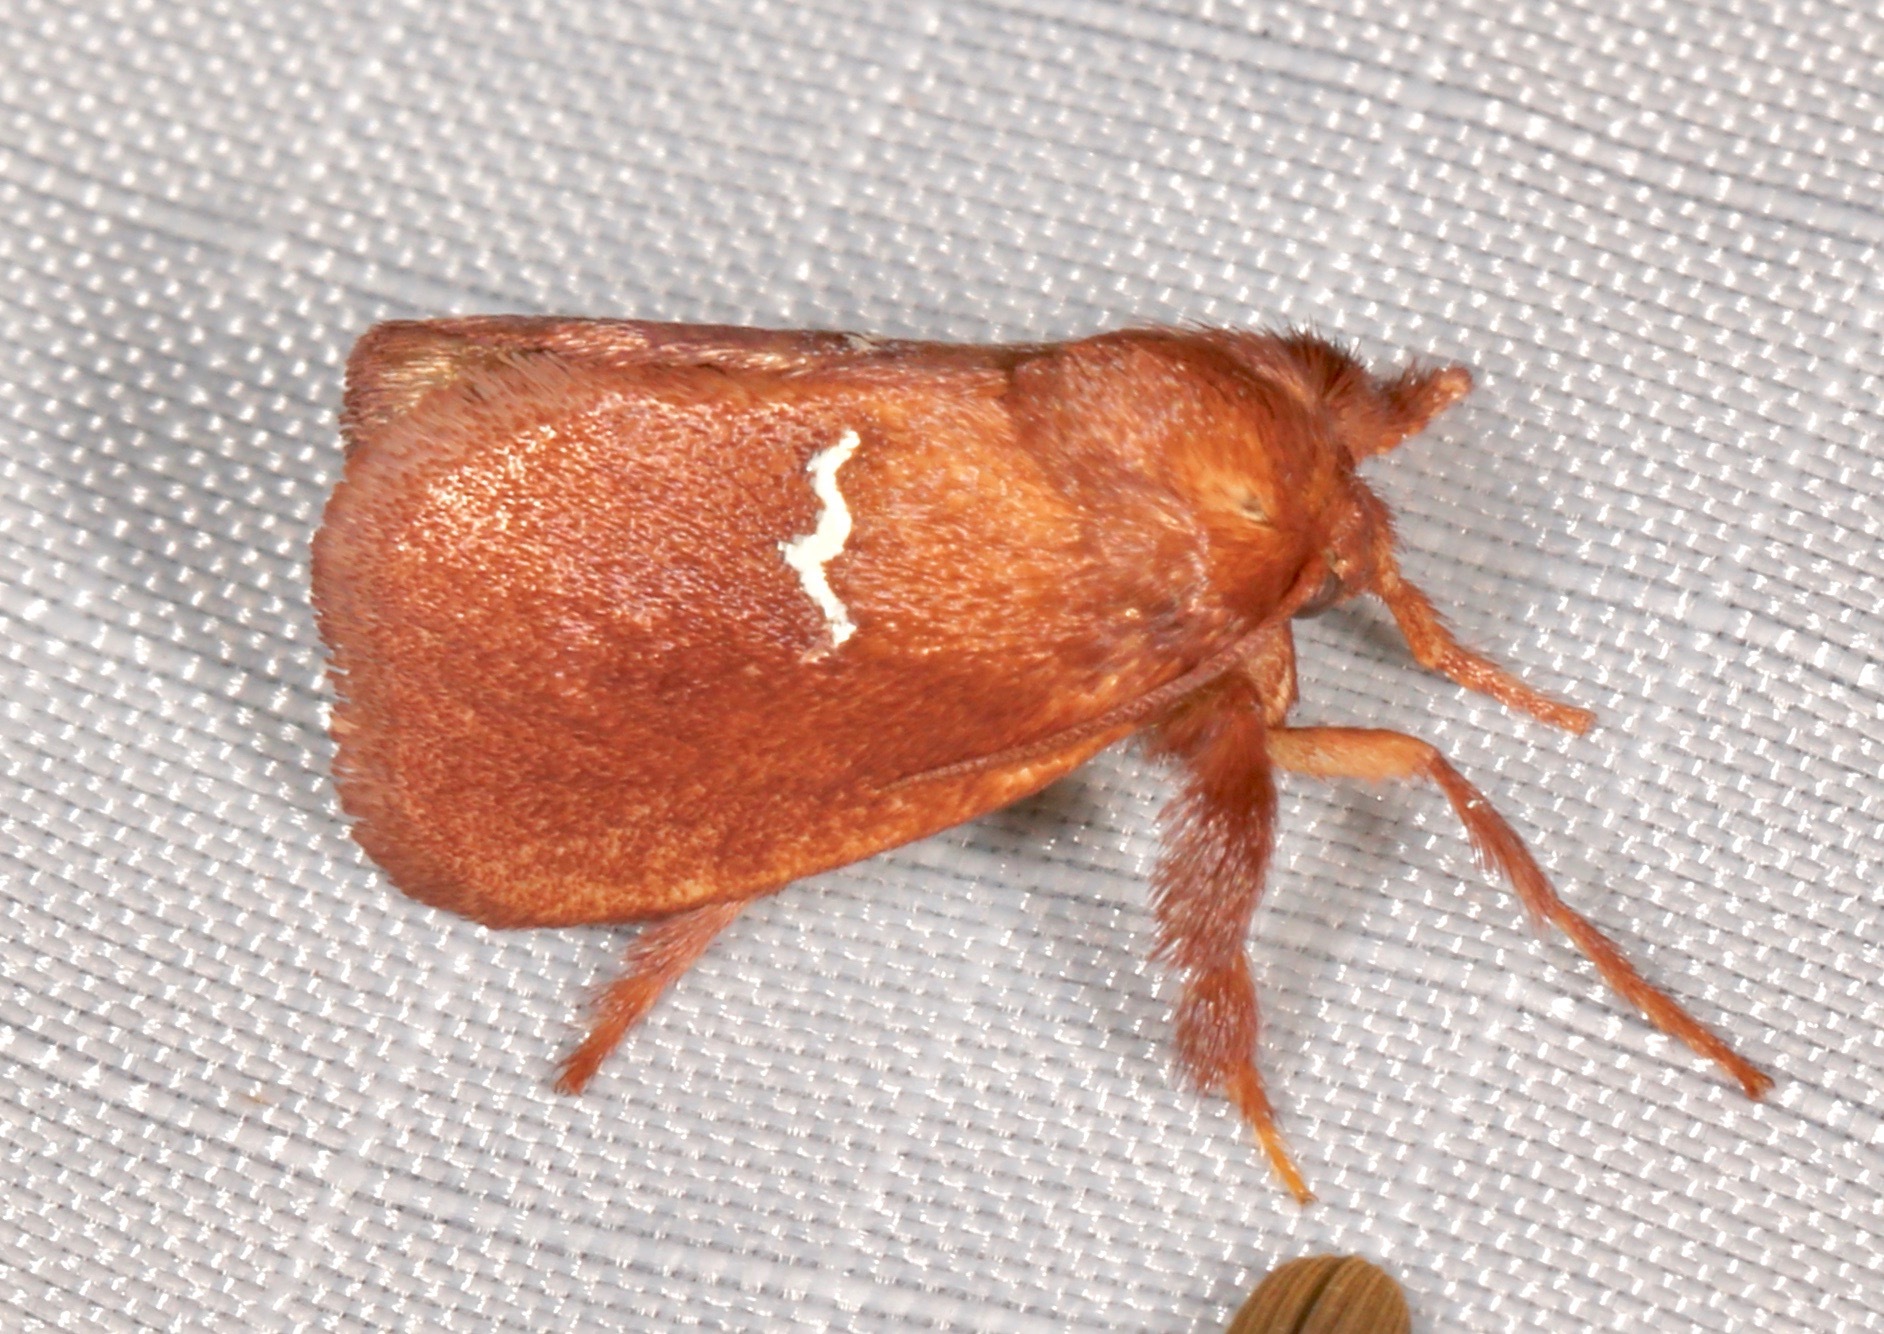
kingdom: Animalia
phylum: Arthropoda
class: Insecta
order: Lepidoptera
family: Limacodidae
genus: Monoleuca
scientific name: Monoleuca semifascia
